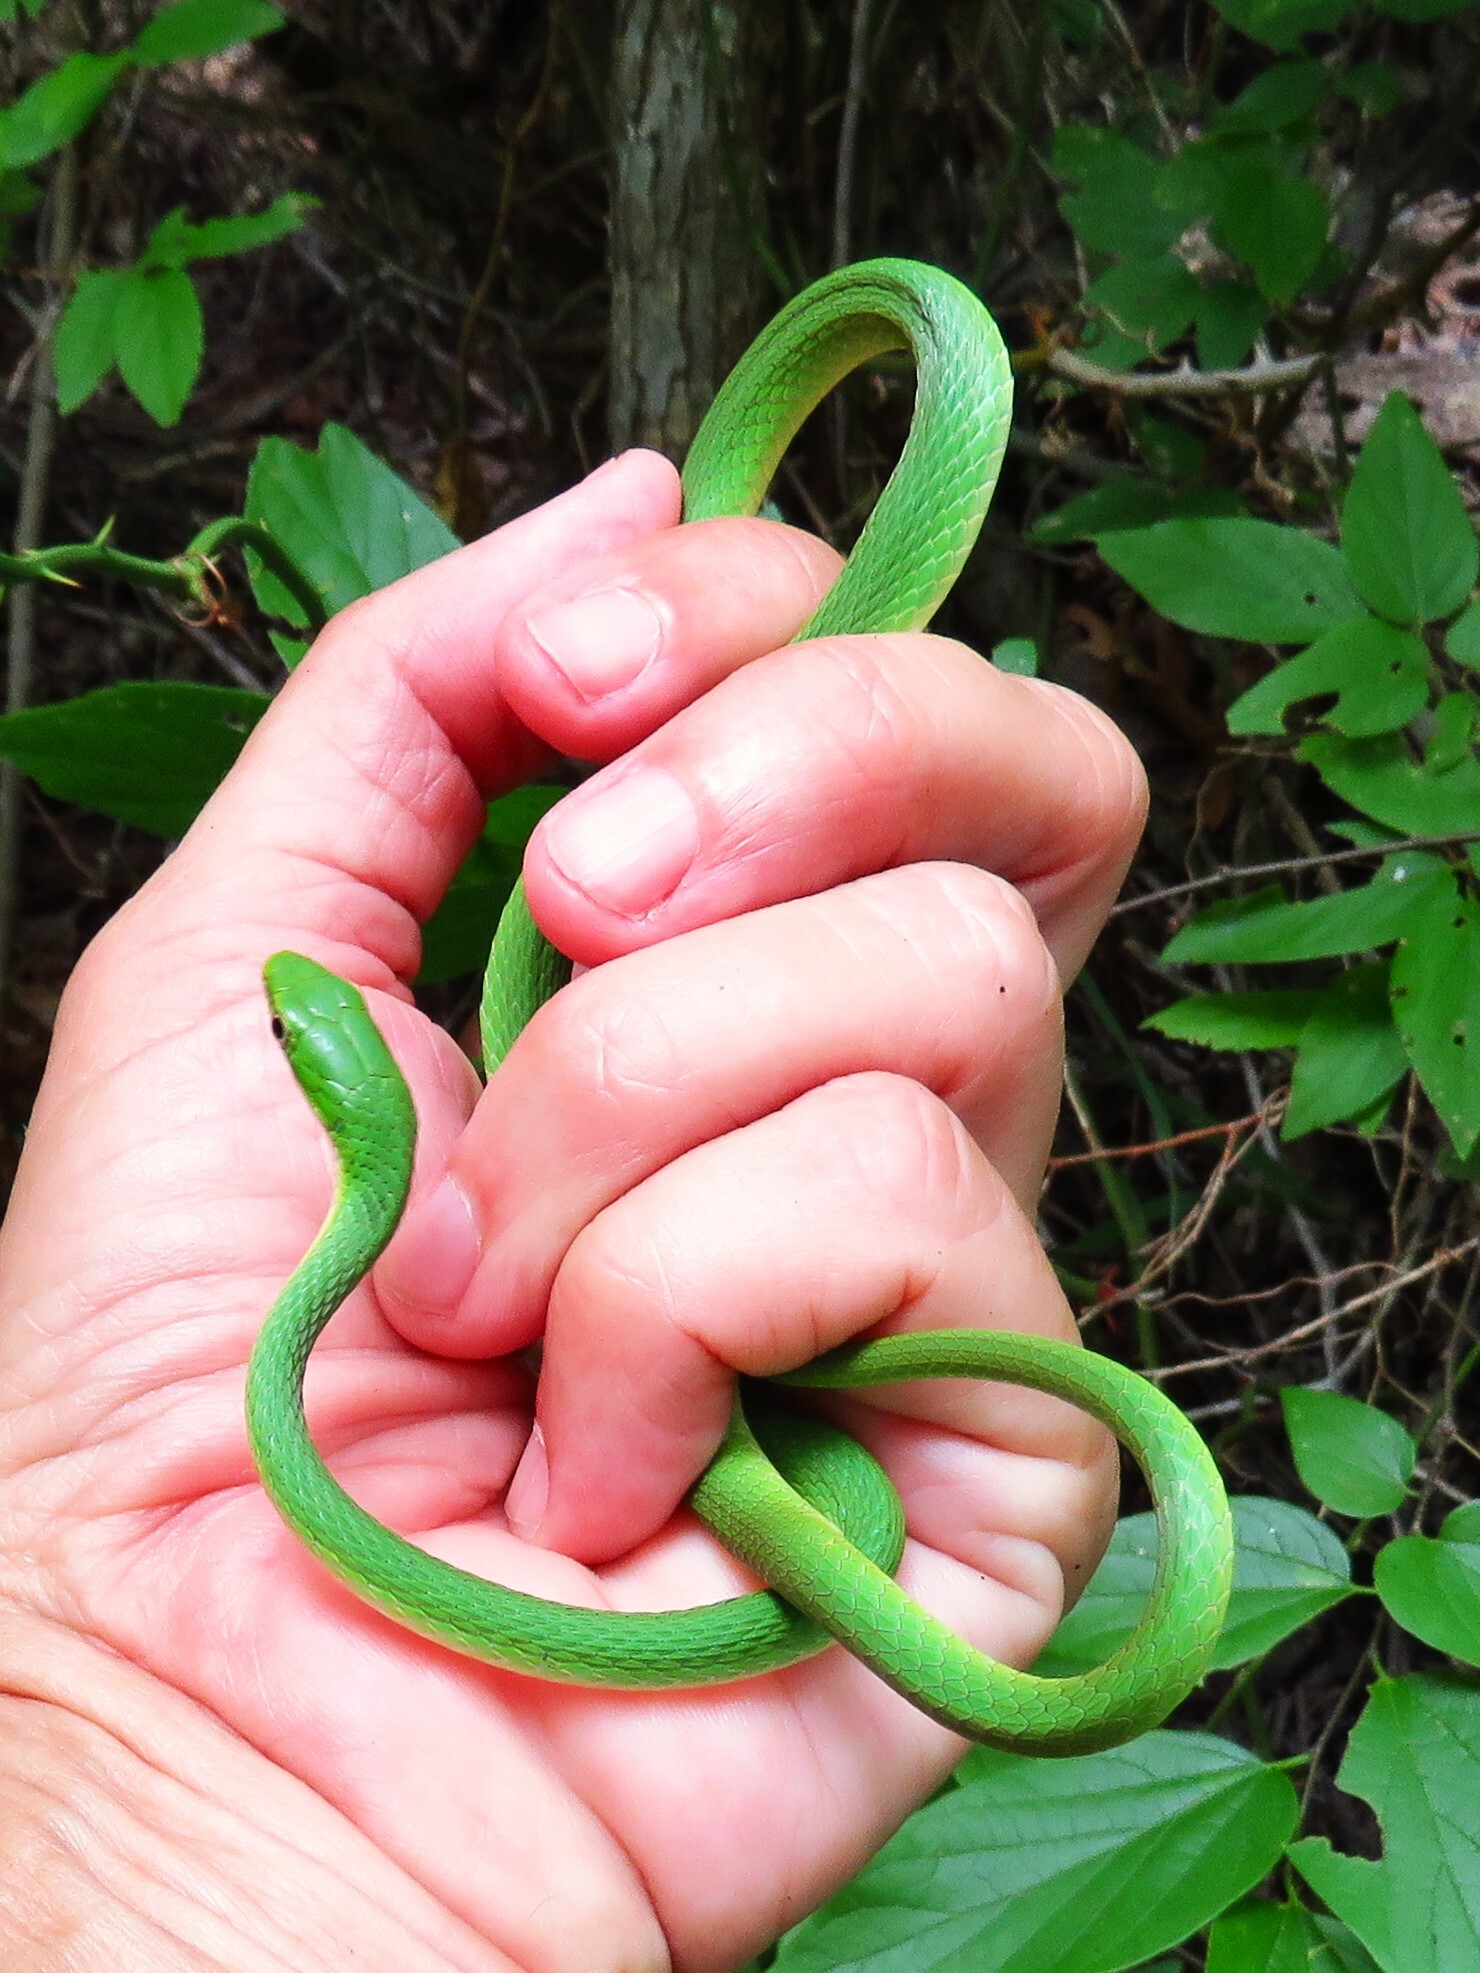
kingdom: Animalia
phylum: Chordata
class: Squamata
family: Colubridae
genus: Opheodrys
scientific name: Opheodrys aestivus
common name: Rough greensnake
